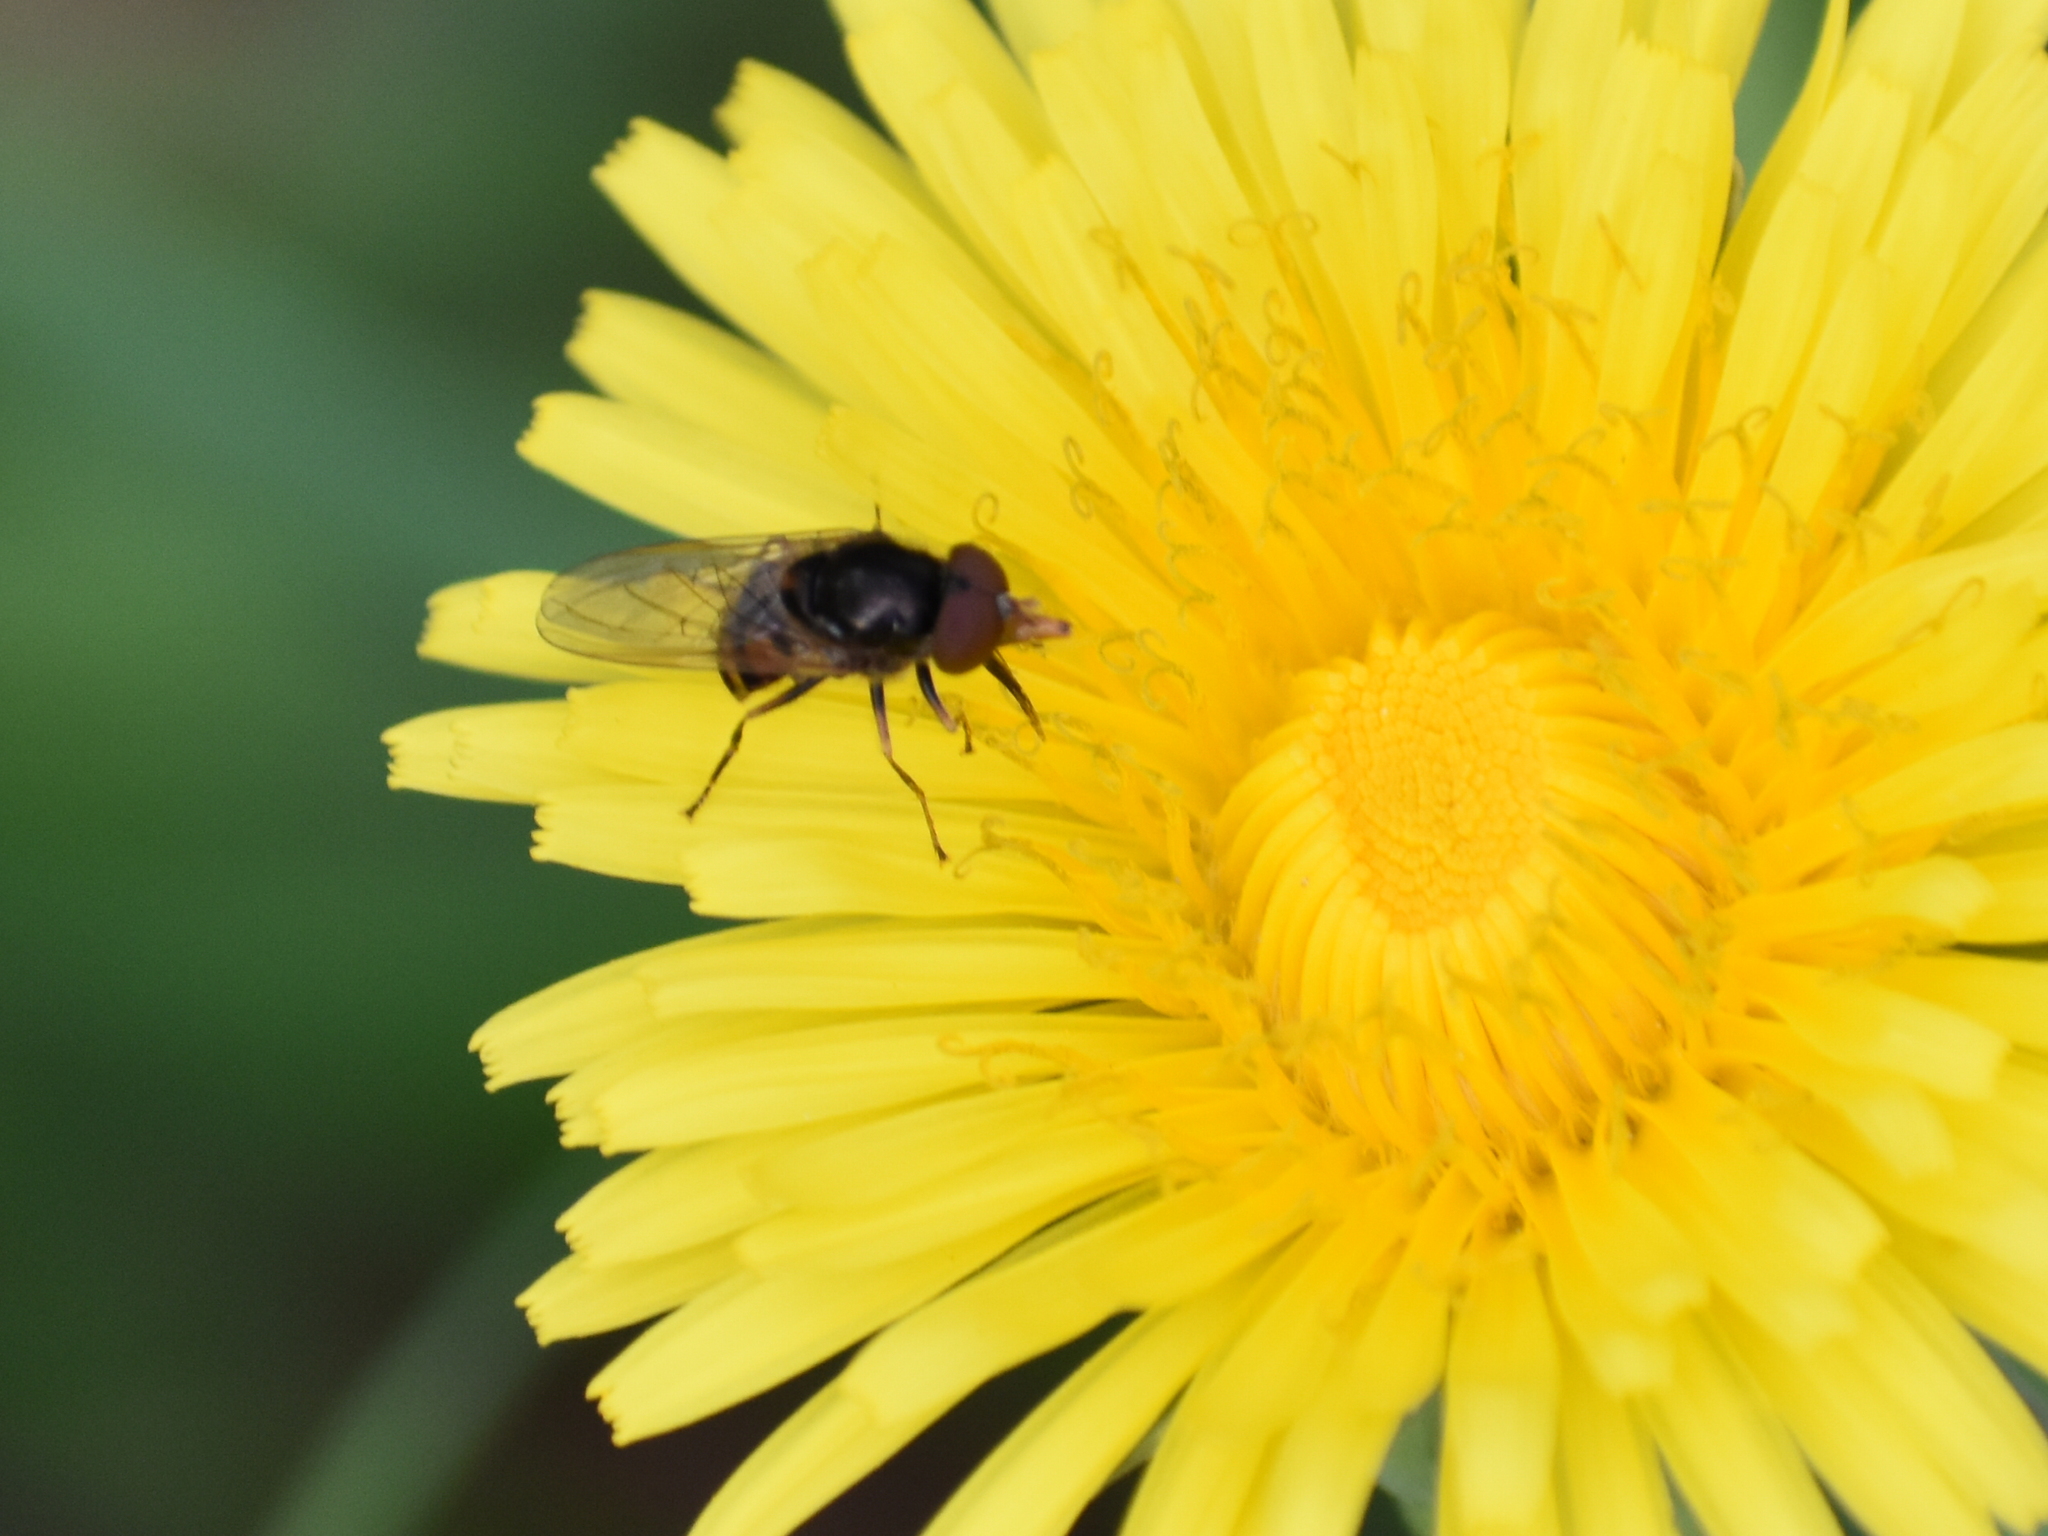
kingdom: Animalia
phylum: Arthropoda
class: Insecta
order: Diptera
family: Syrphidae
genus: Rhingia
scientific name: Rhingia nasica
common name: American snout fly
